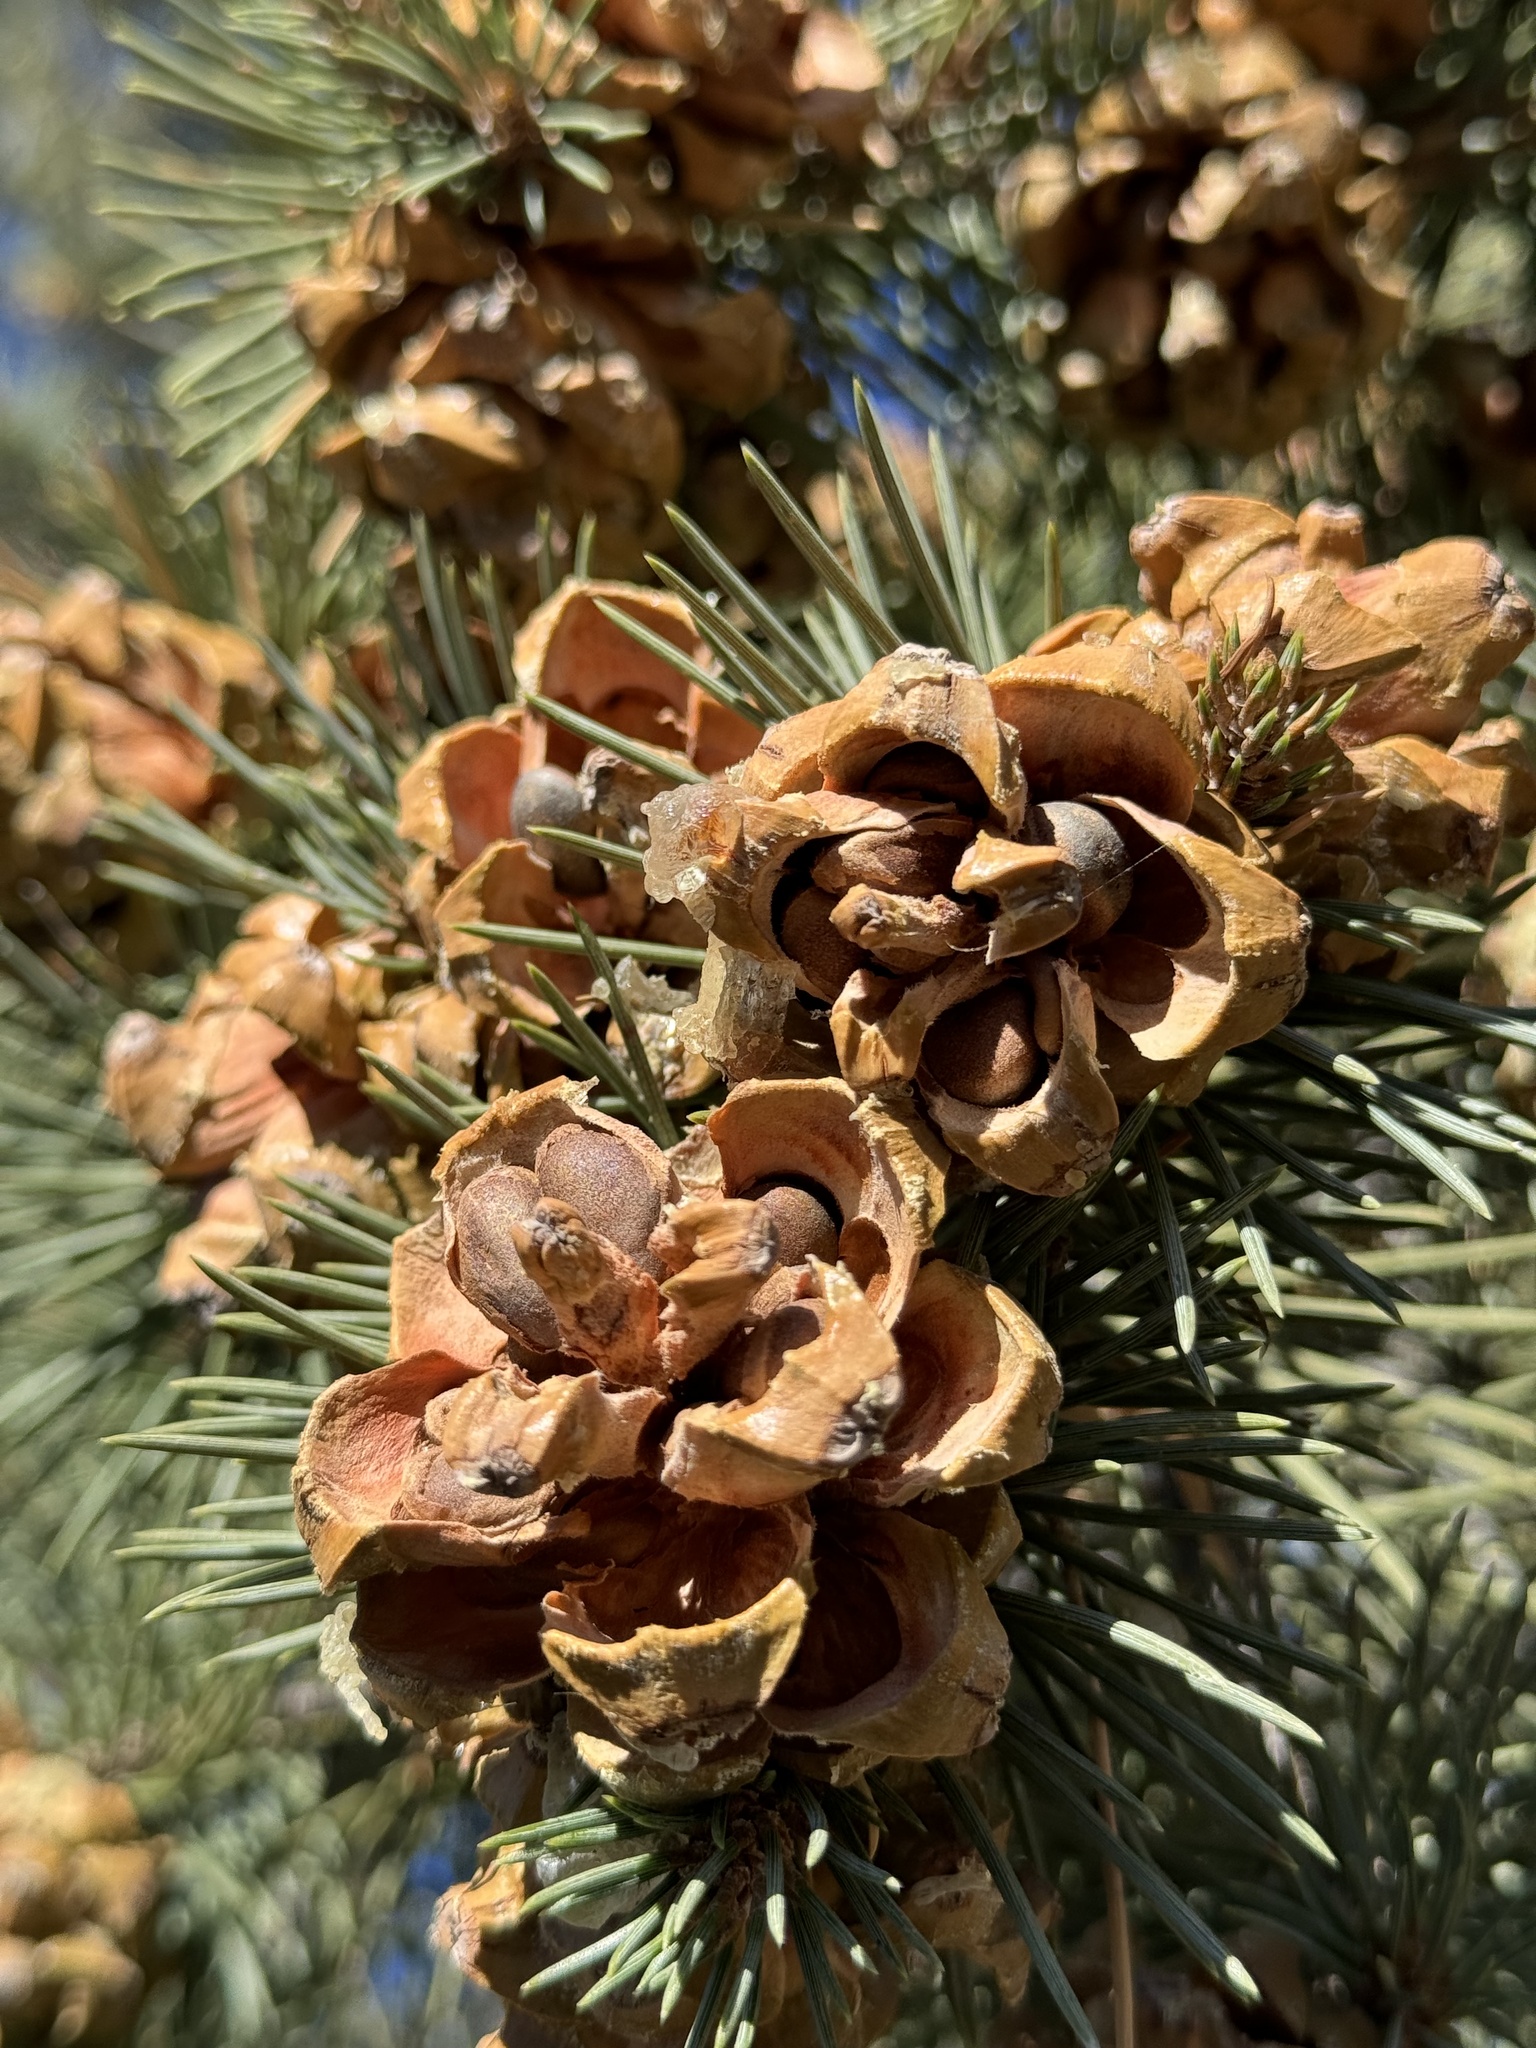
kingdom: Plantae
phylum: Tracheophyta
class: Pinopsida
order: Pinales
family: Pinaceae
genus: Pinus
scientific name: Pinus monophylla
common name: One-leaved nut pine
